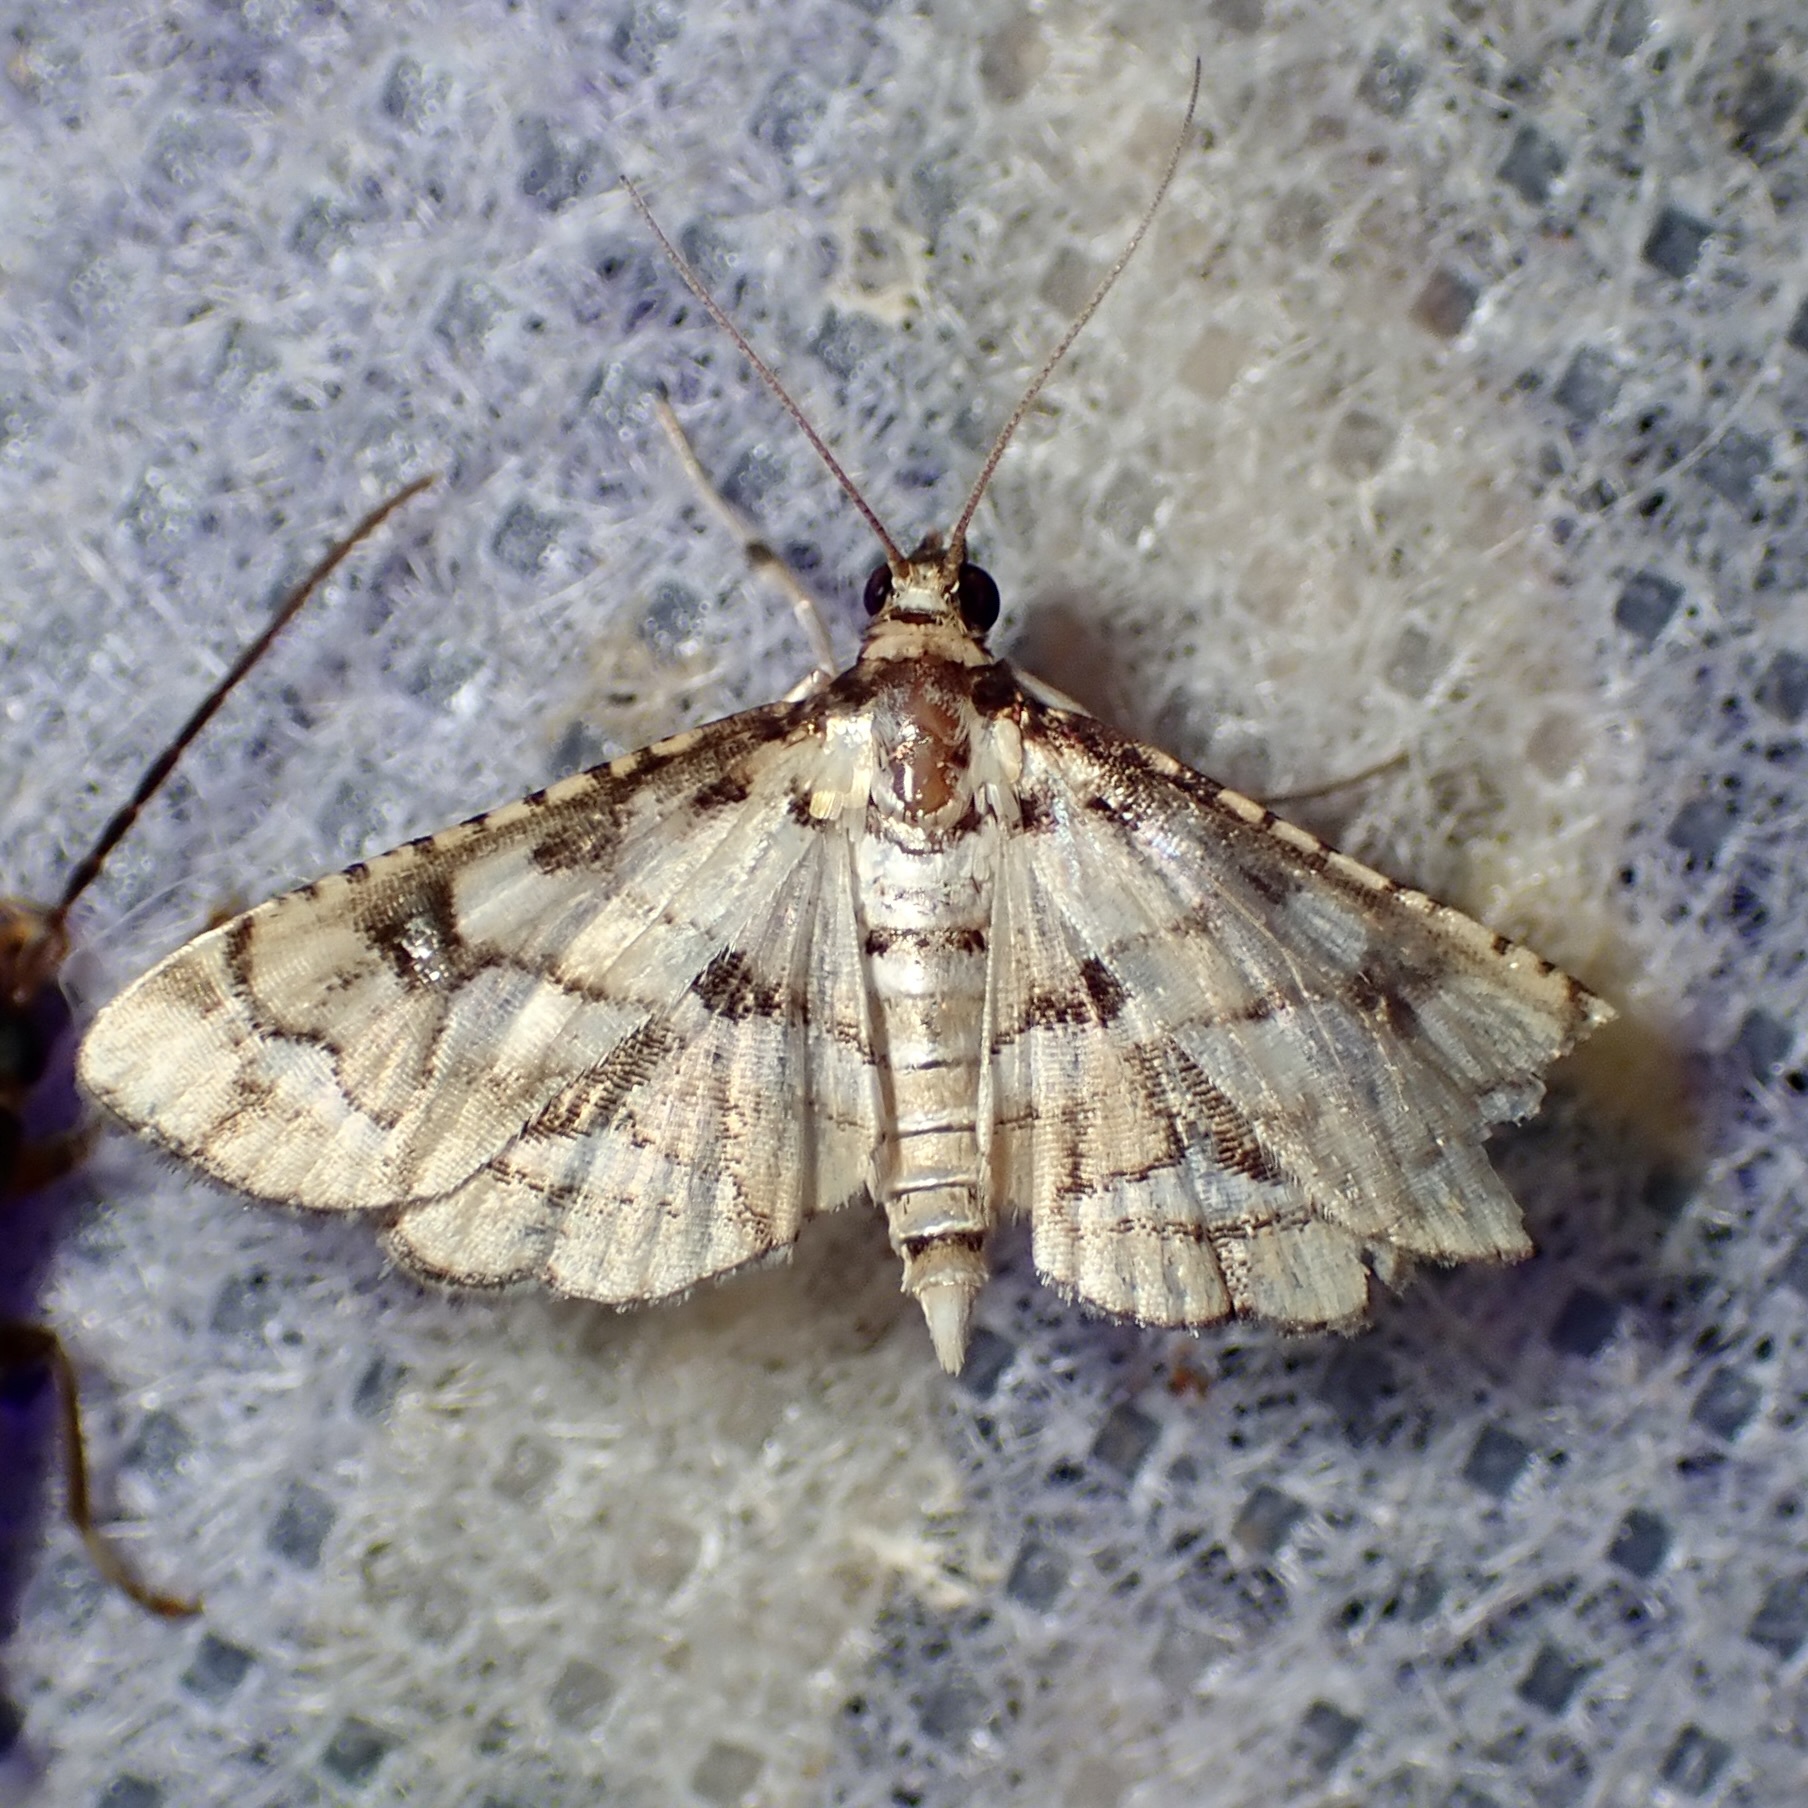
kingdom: Animalia
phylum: Arthropoda
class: Insecta
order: Lepidoptera
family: Crambidae
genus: Hileithia
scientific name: Hileithia magualis
